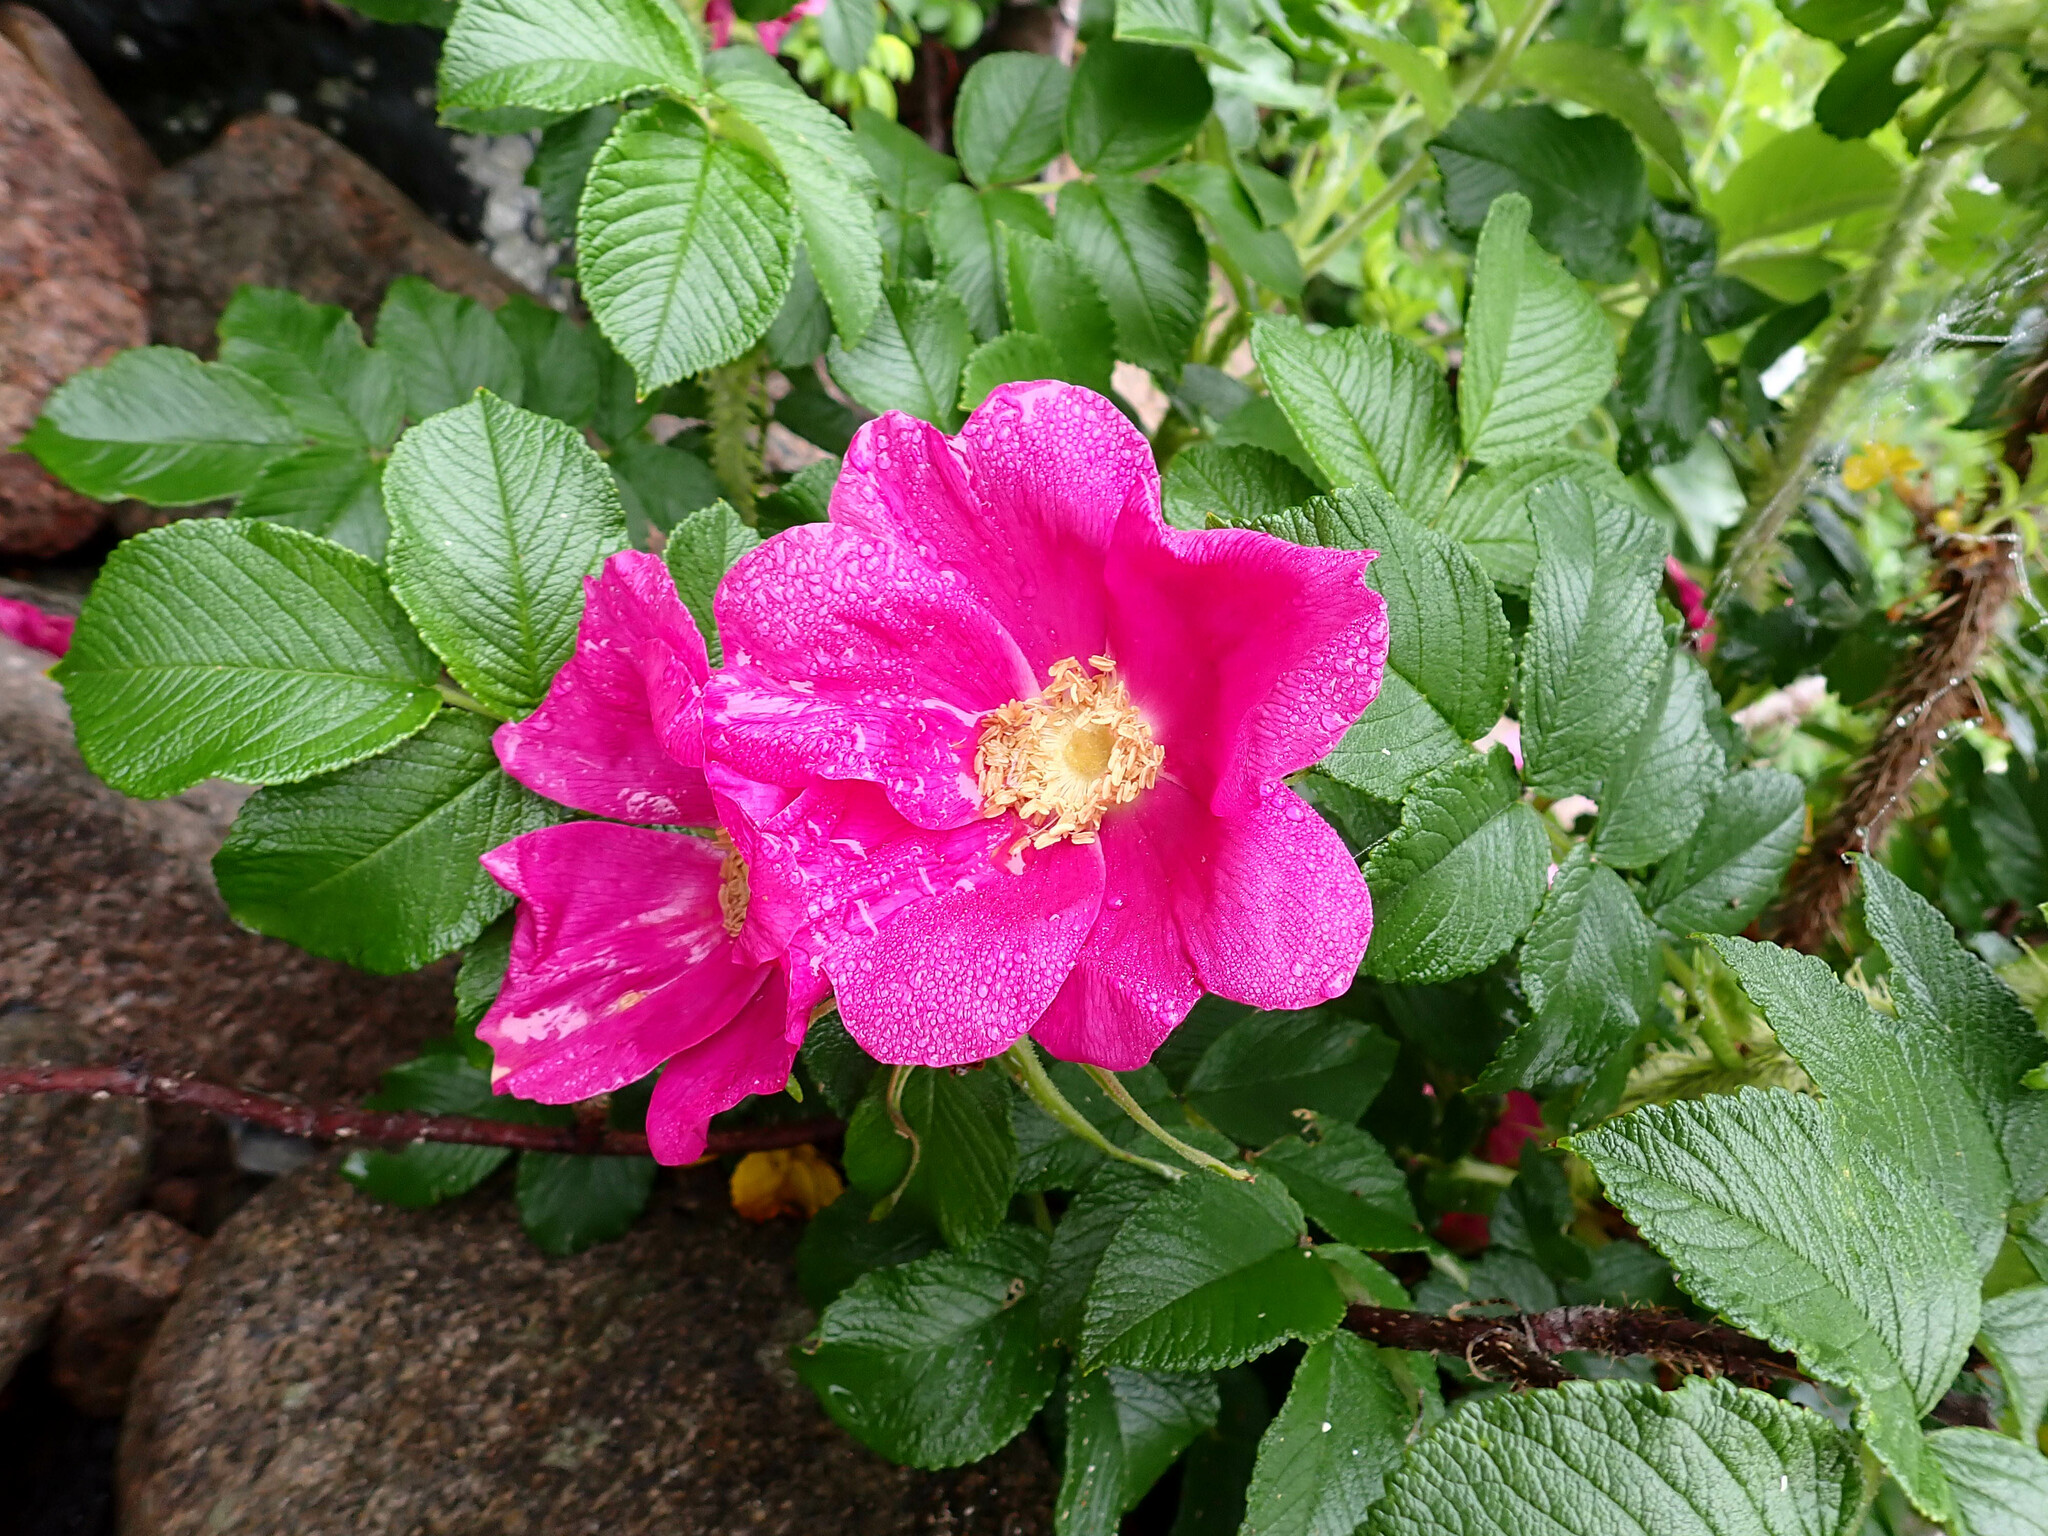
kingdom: Plantae
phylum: Tracheophyta
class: Magnoliopsida
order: Rosales
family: Rosaceae
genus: Rosa
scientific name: Rosa rugosa
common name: Japanese rose
